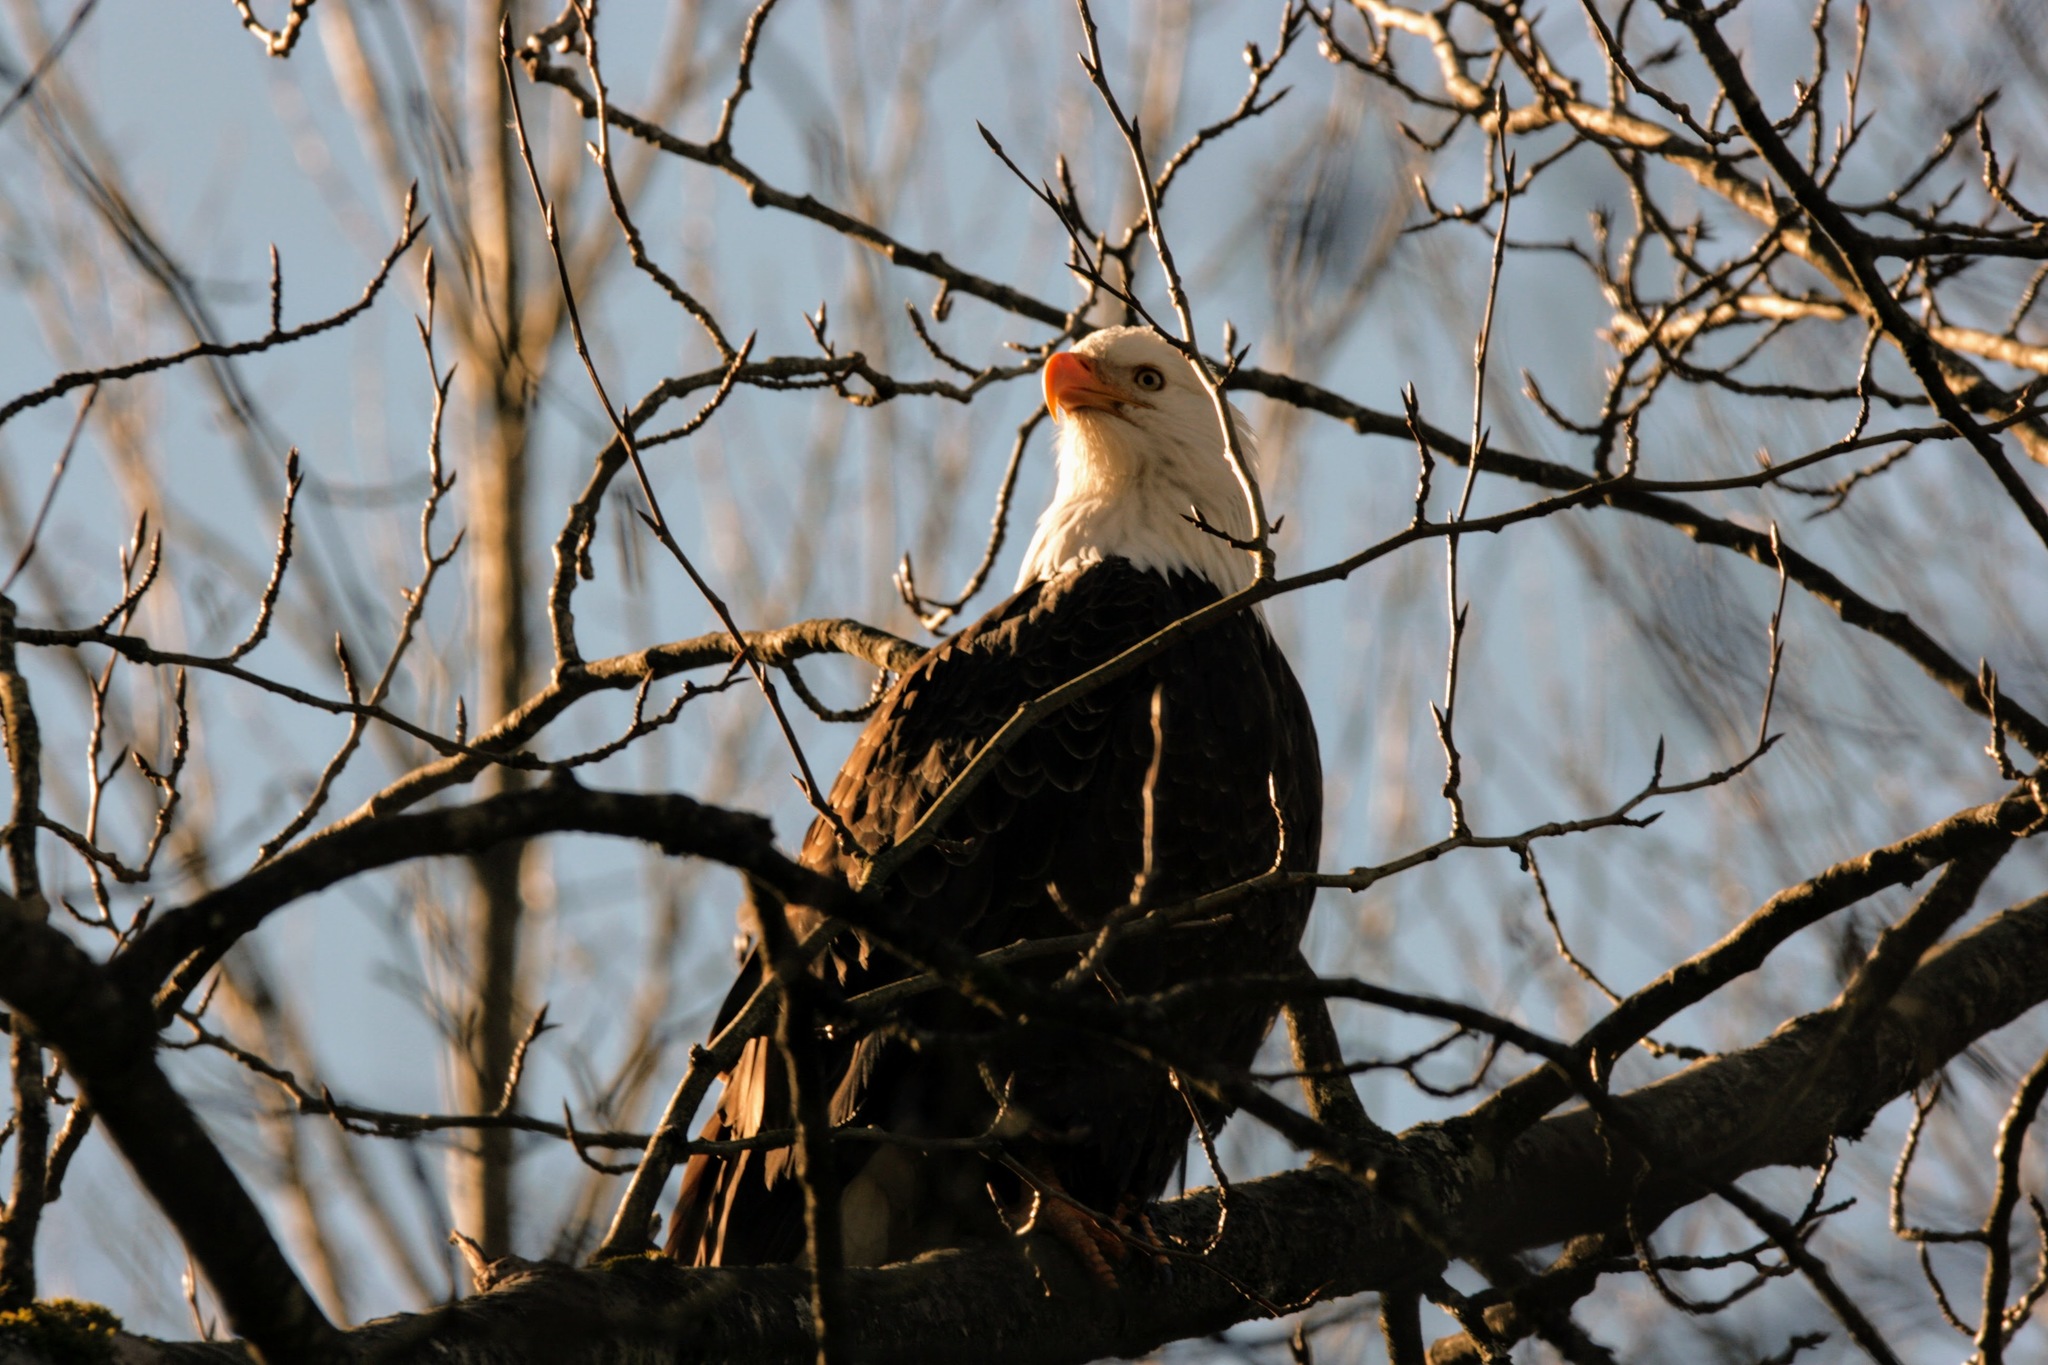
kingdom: Animalia
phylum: Chordata
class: Aves
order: Accipitriformes
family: Accipitridae
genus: Haliaeetus
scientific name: Haliaeetus leucocephalus
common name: Bald eagle
